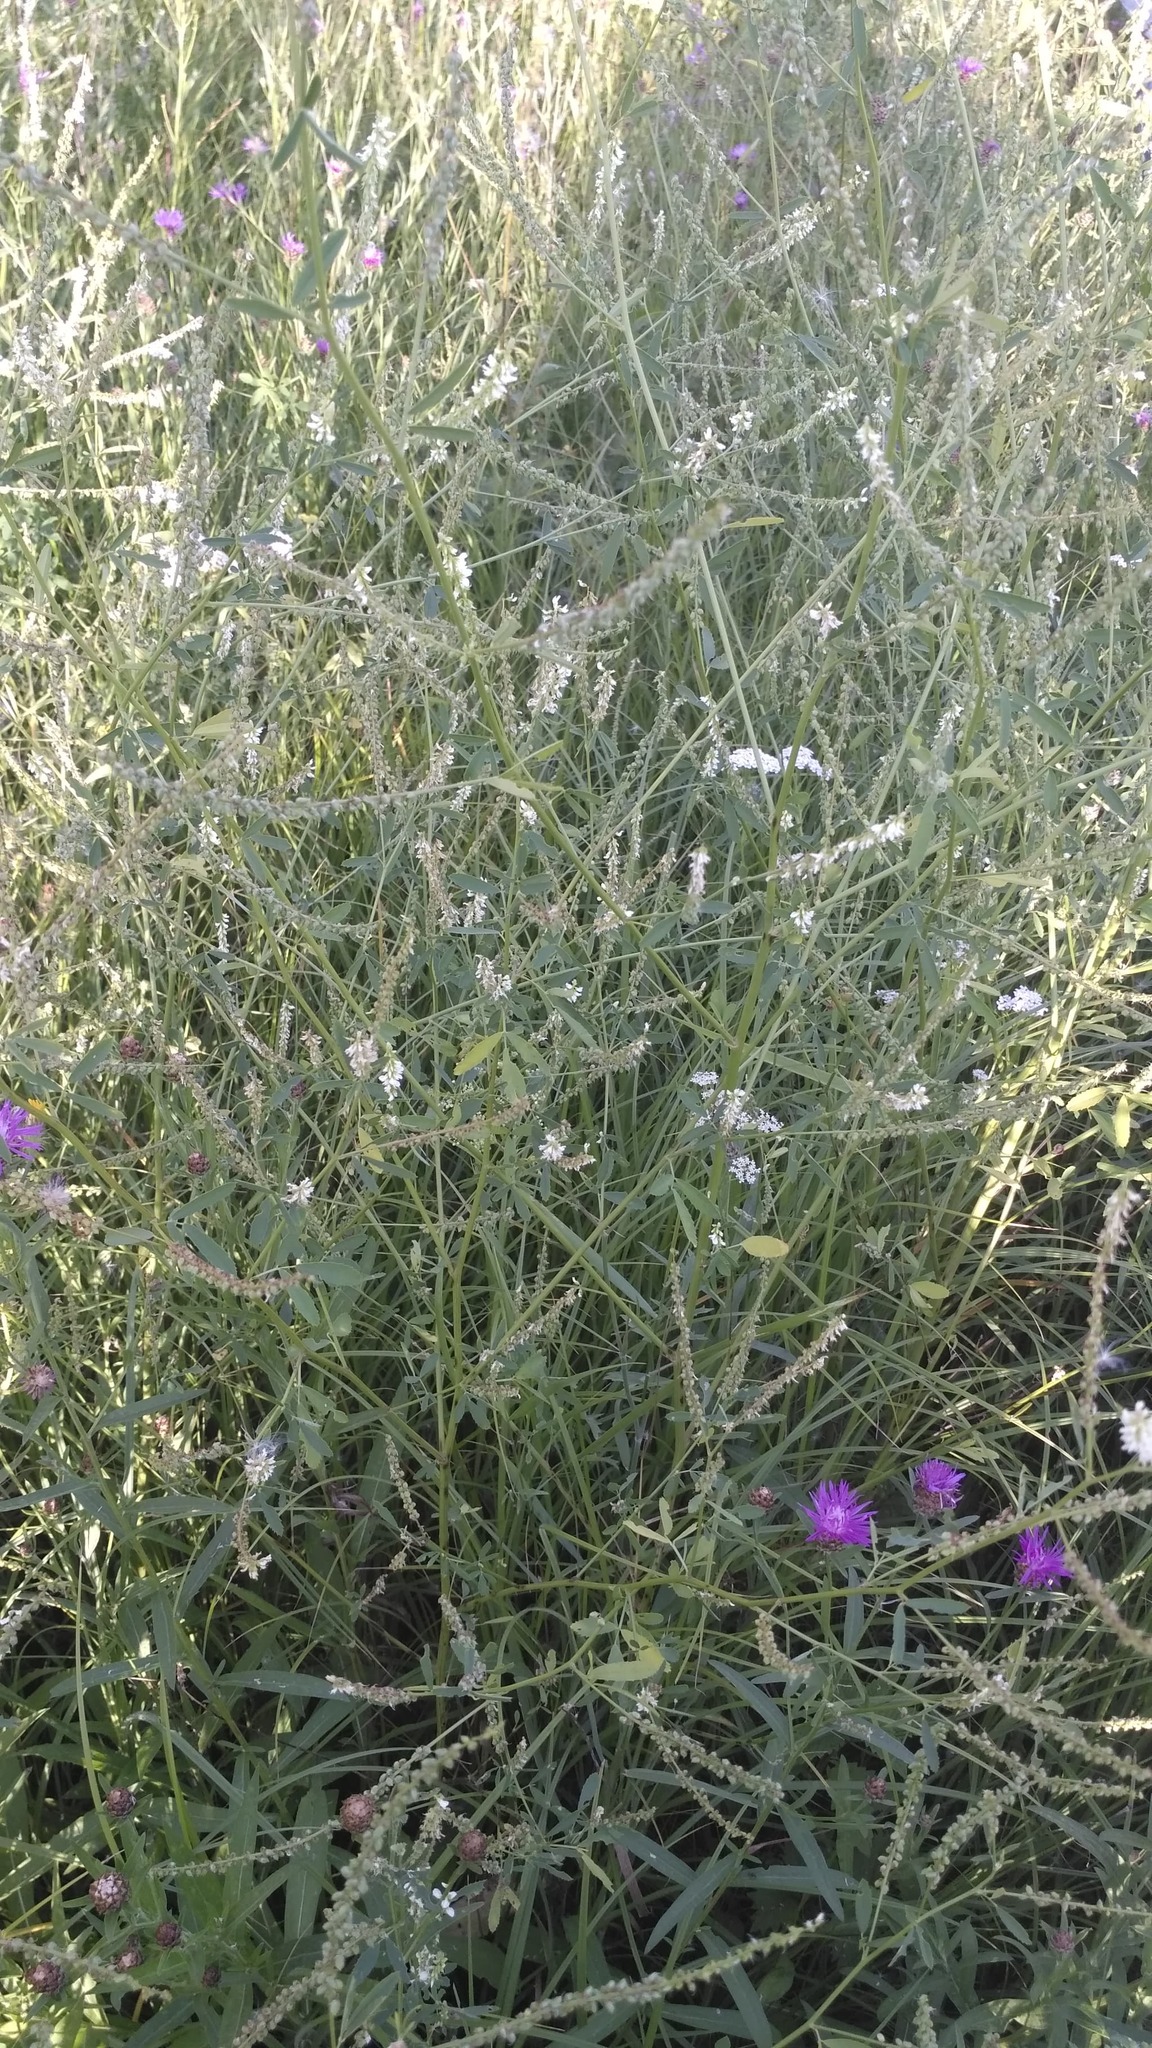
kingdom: Plantae
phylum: Tracheophyta
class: Magnoliopsida
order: Fabales
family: Fabaceae
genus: Melilotus
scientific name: Melilotus albus
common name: White melilot
